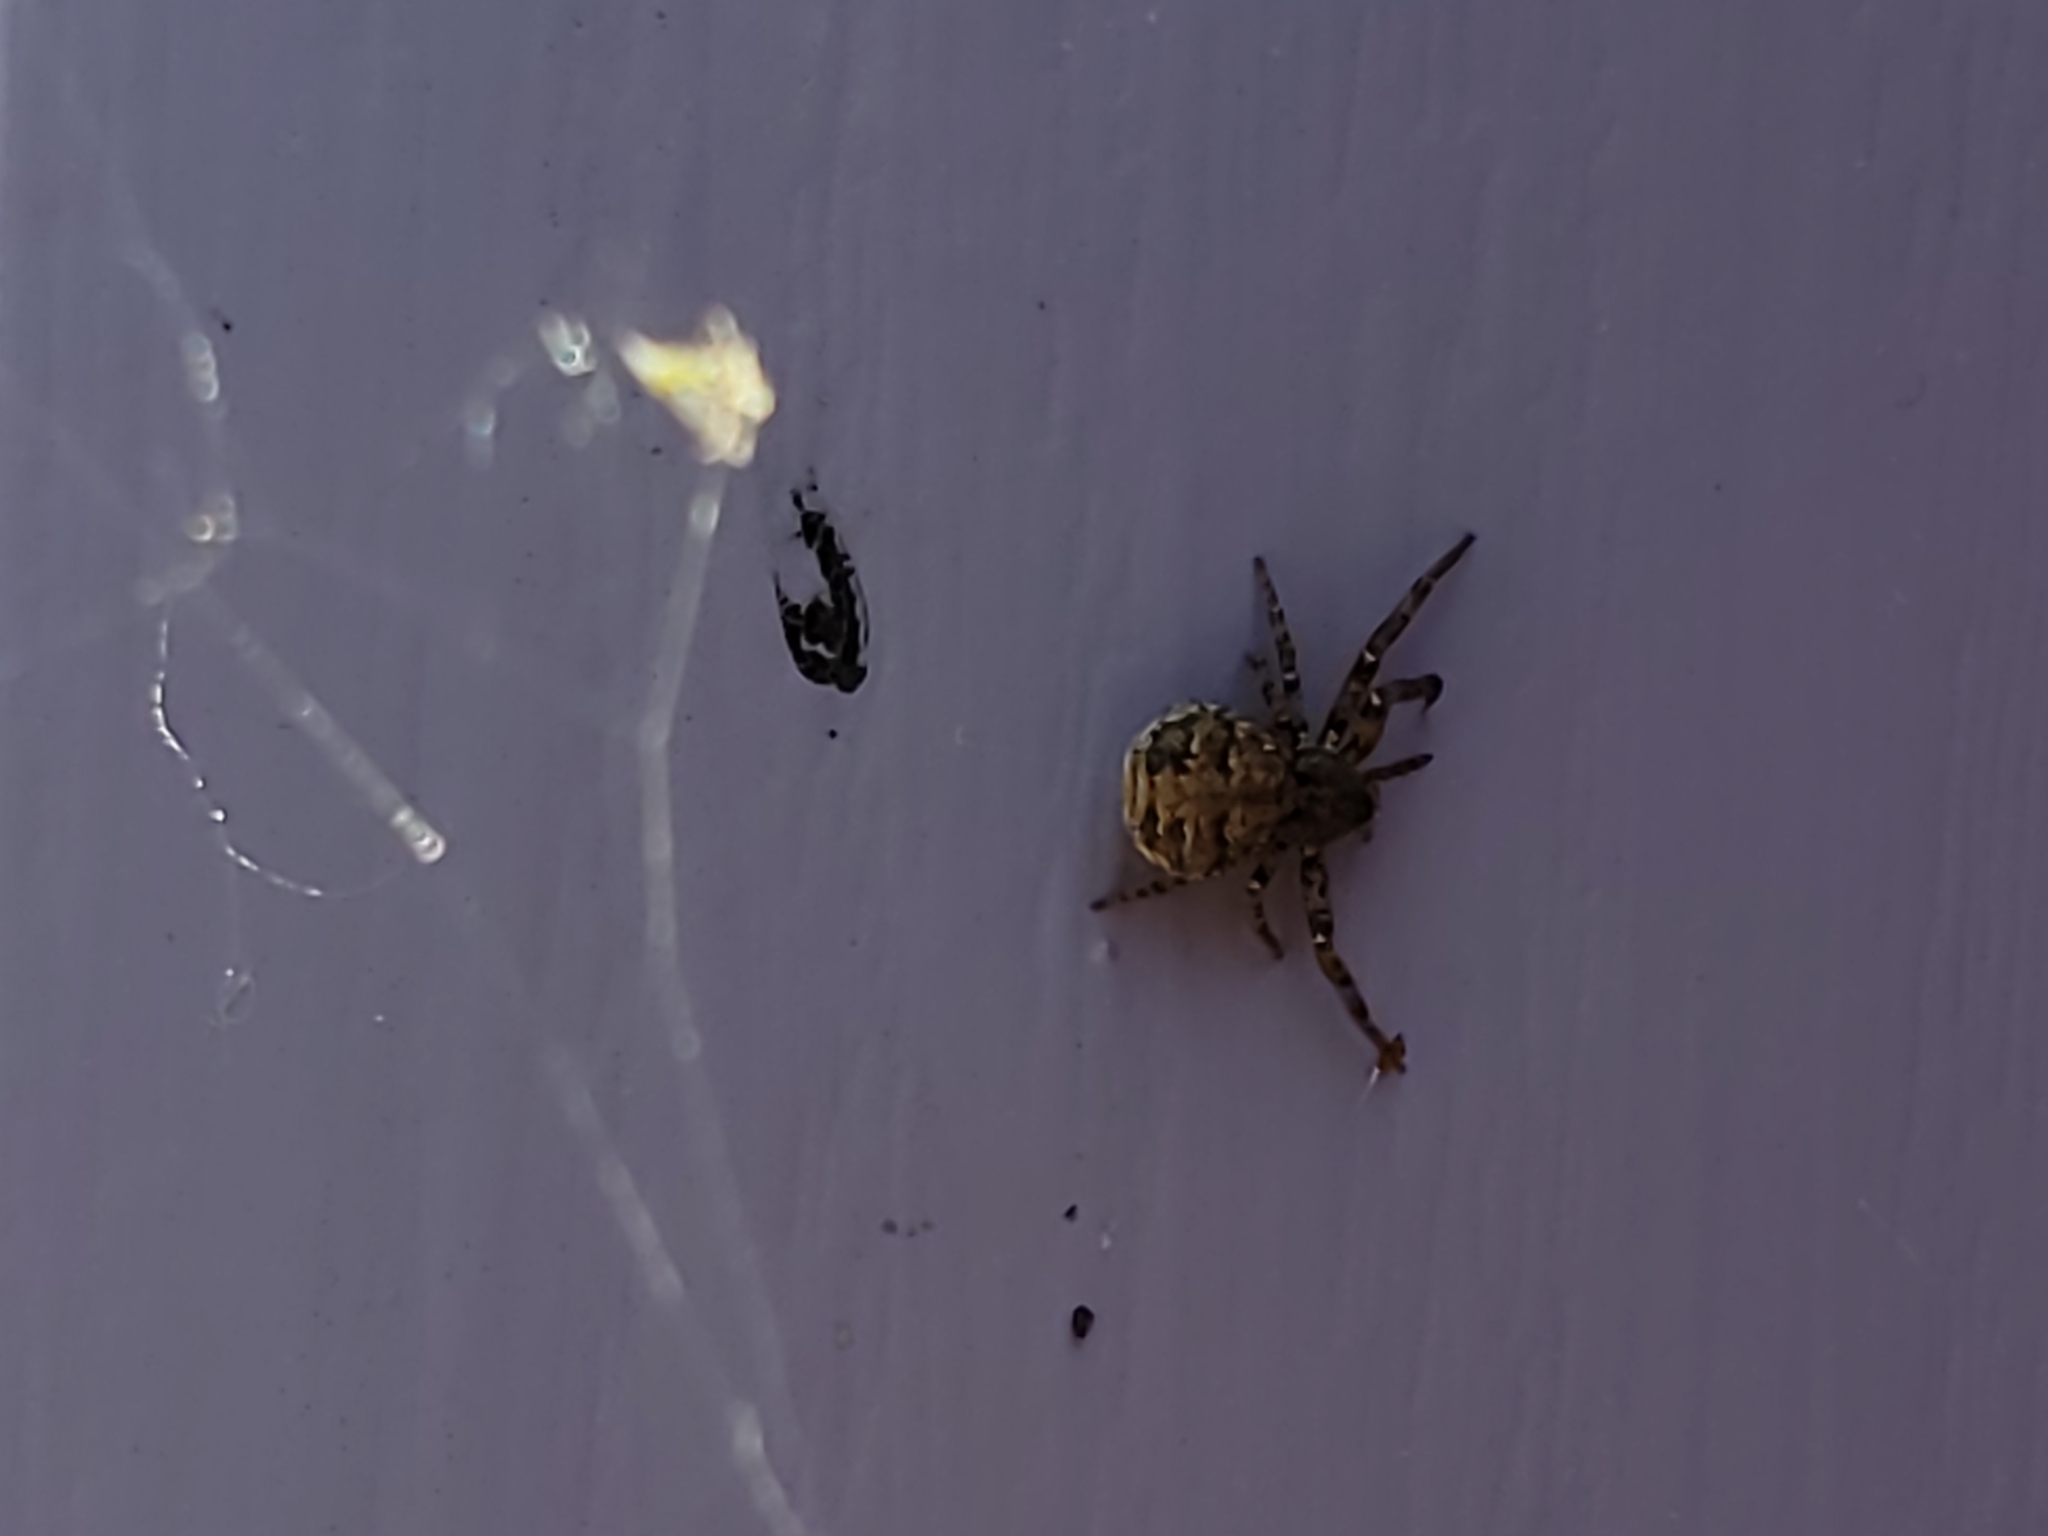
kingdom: Animalia
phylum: Arthropoda
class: Arachnida
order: Araneae
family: Thomisidae
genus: Bassaniana
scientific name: Bassaniana utahensis
